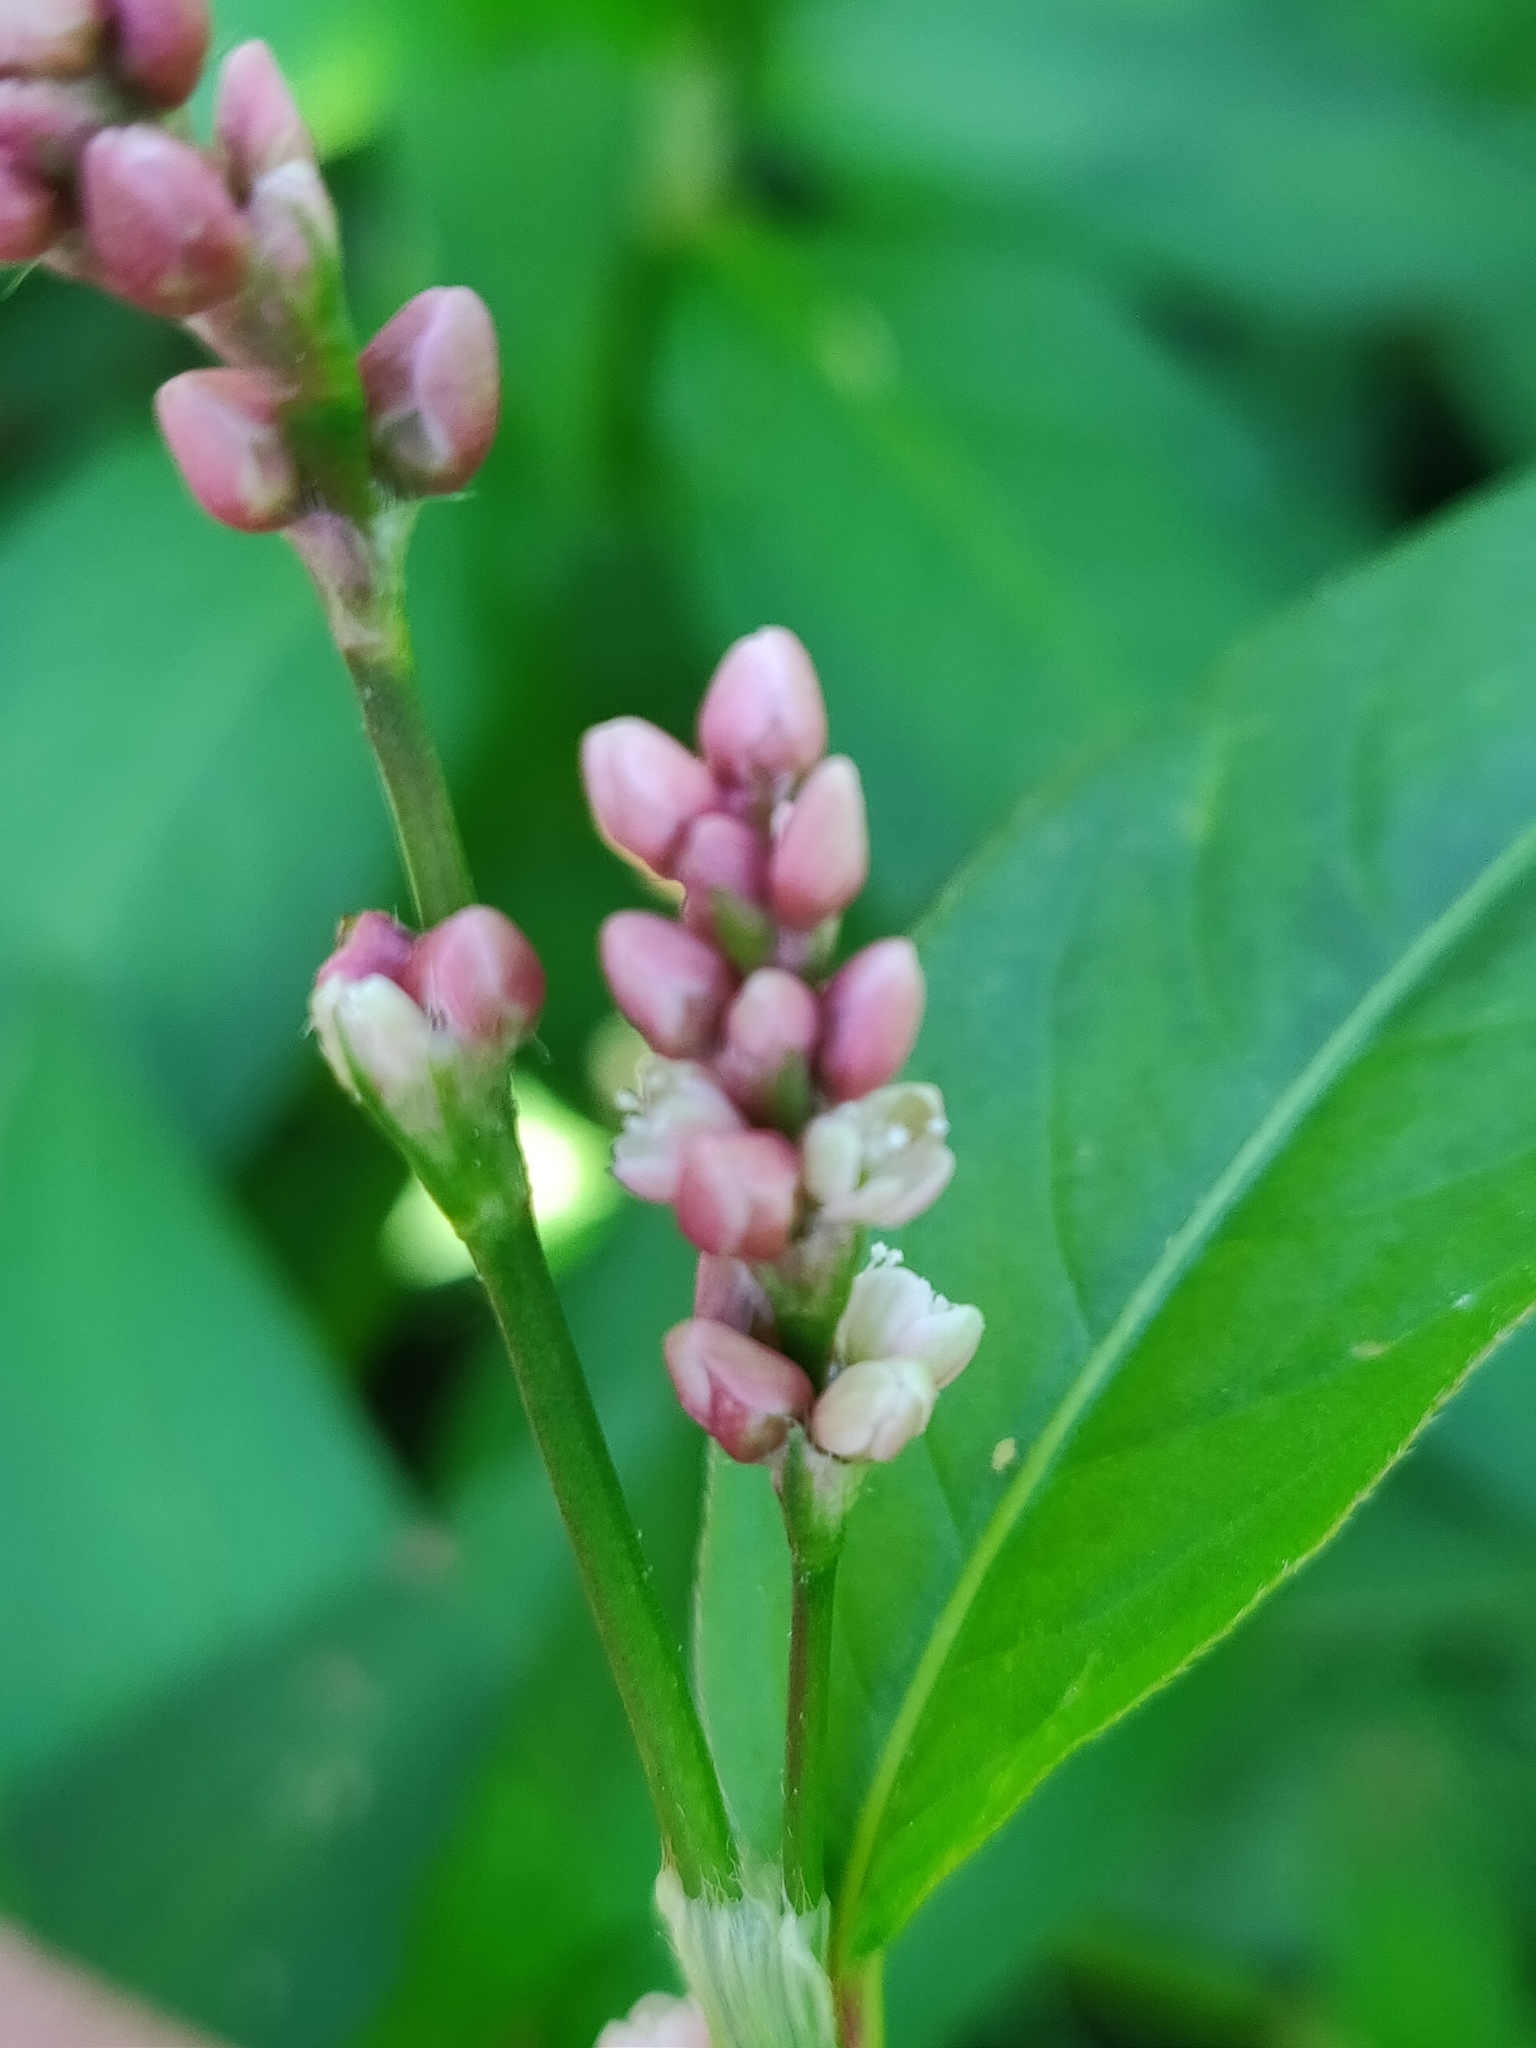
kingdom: Plantae
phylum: Tracheophyta
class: Magnoliopsida
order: Caryophyllales
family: Polygonaceae
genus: Persicaria
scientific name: Persicaria maculosa
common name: Redshank
